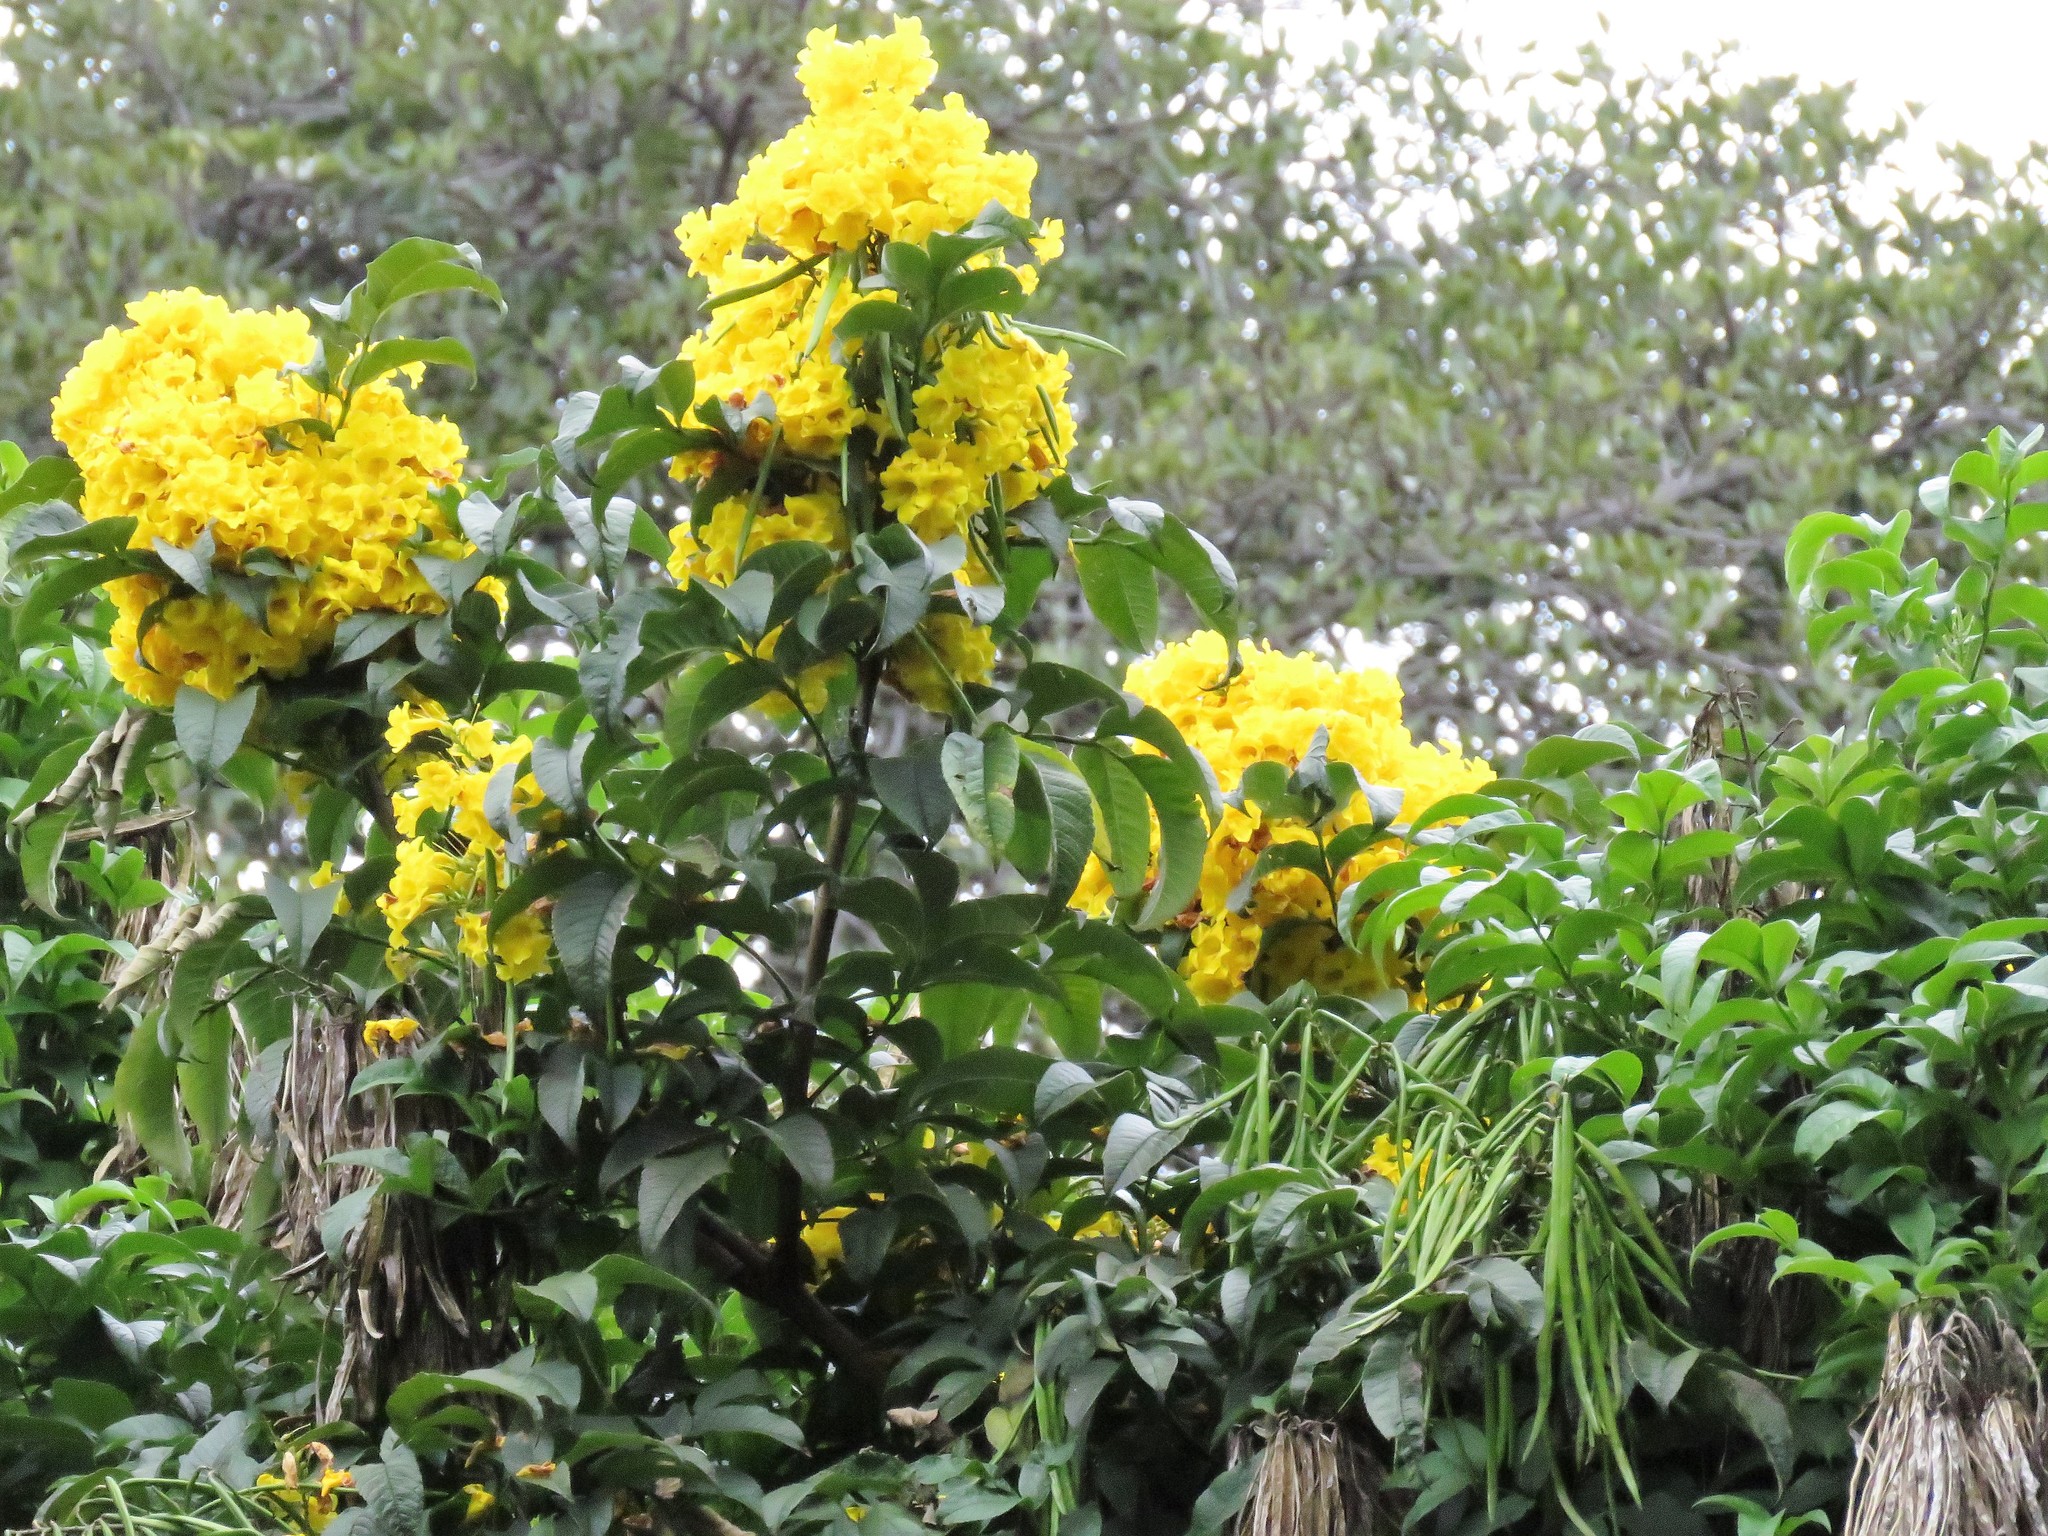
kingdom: Plantae
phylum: Tracheophyta
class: Magnoliopsida
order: Lamiales
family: Bignoniaceae
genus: Tecoma
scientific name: Tecoma stans
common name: Yellow trumpetbush
